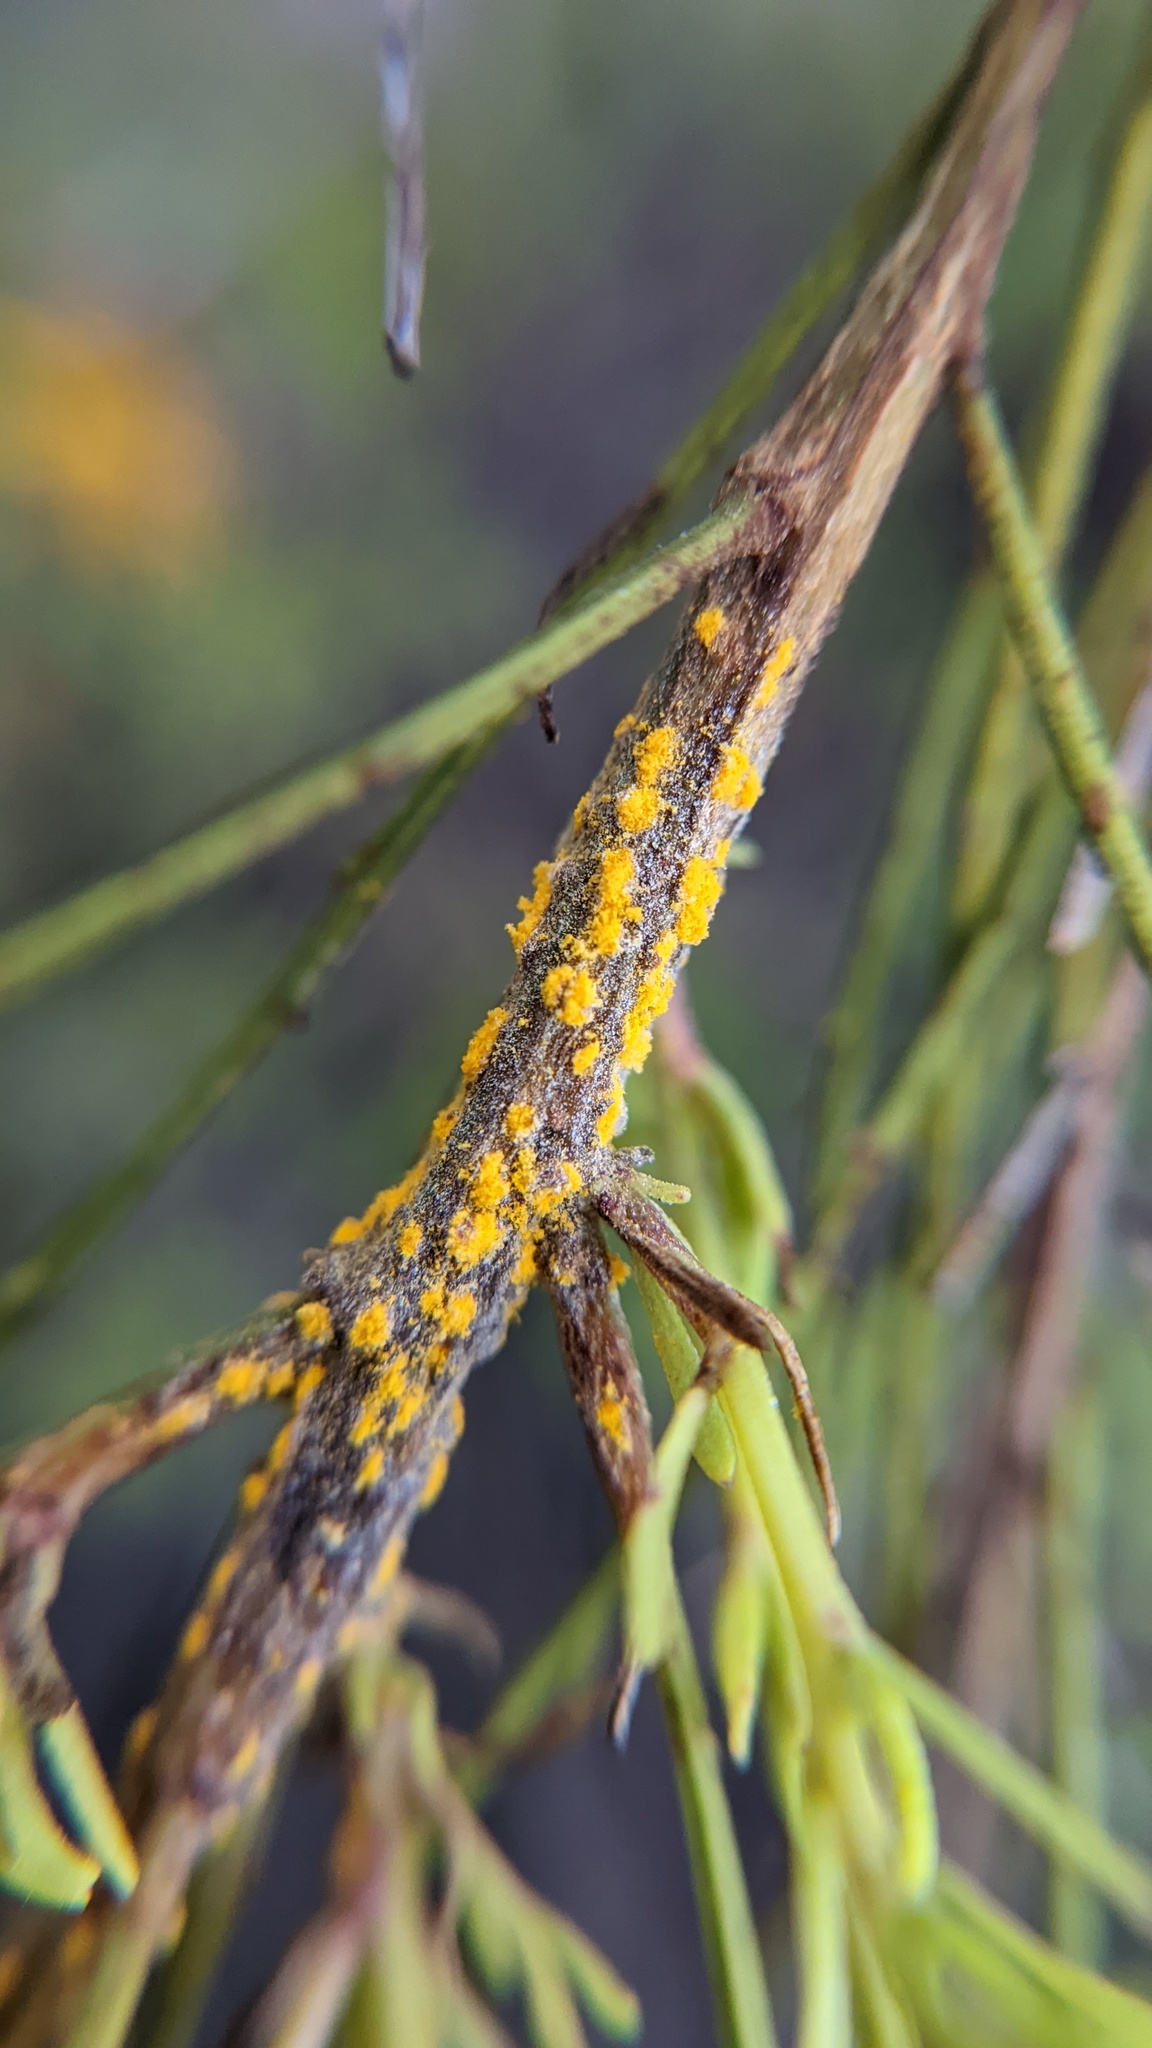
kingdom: Fungi
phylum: Basidiomycota
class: Pucciniomycetes
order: Pucciniales
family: Pucciniaceae
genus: Eriosporangium
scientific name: Eriosporangium evadens
